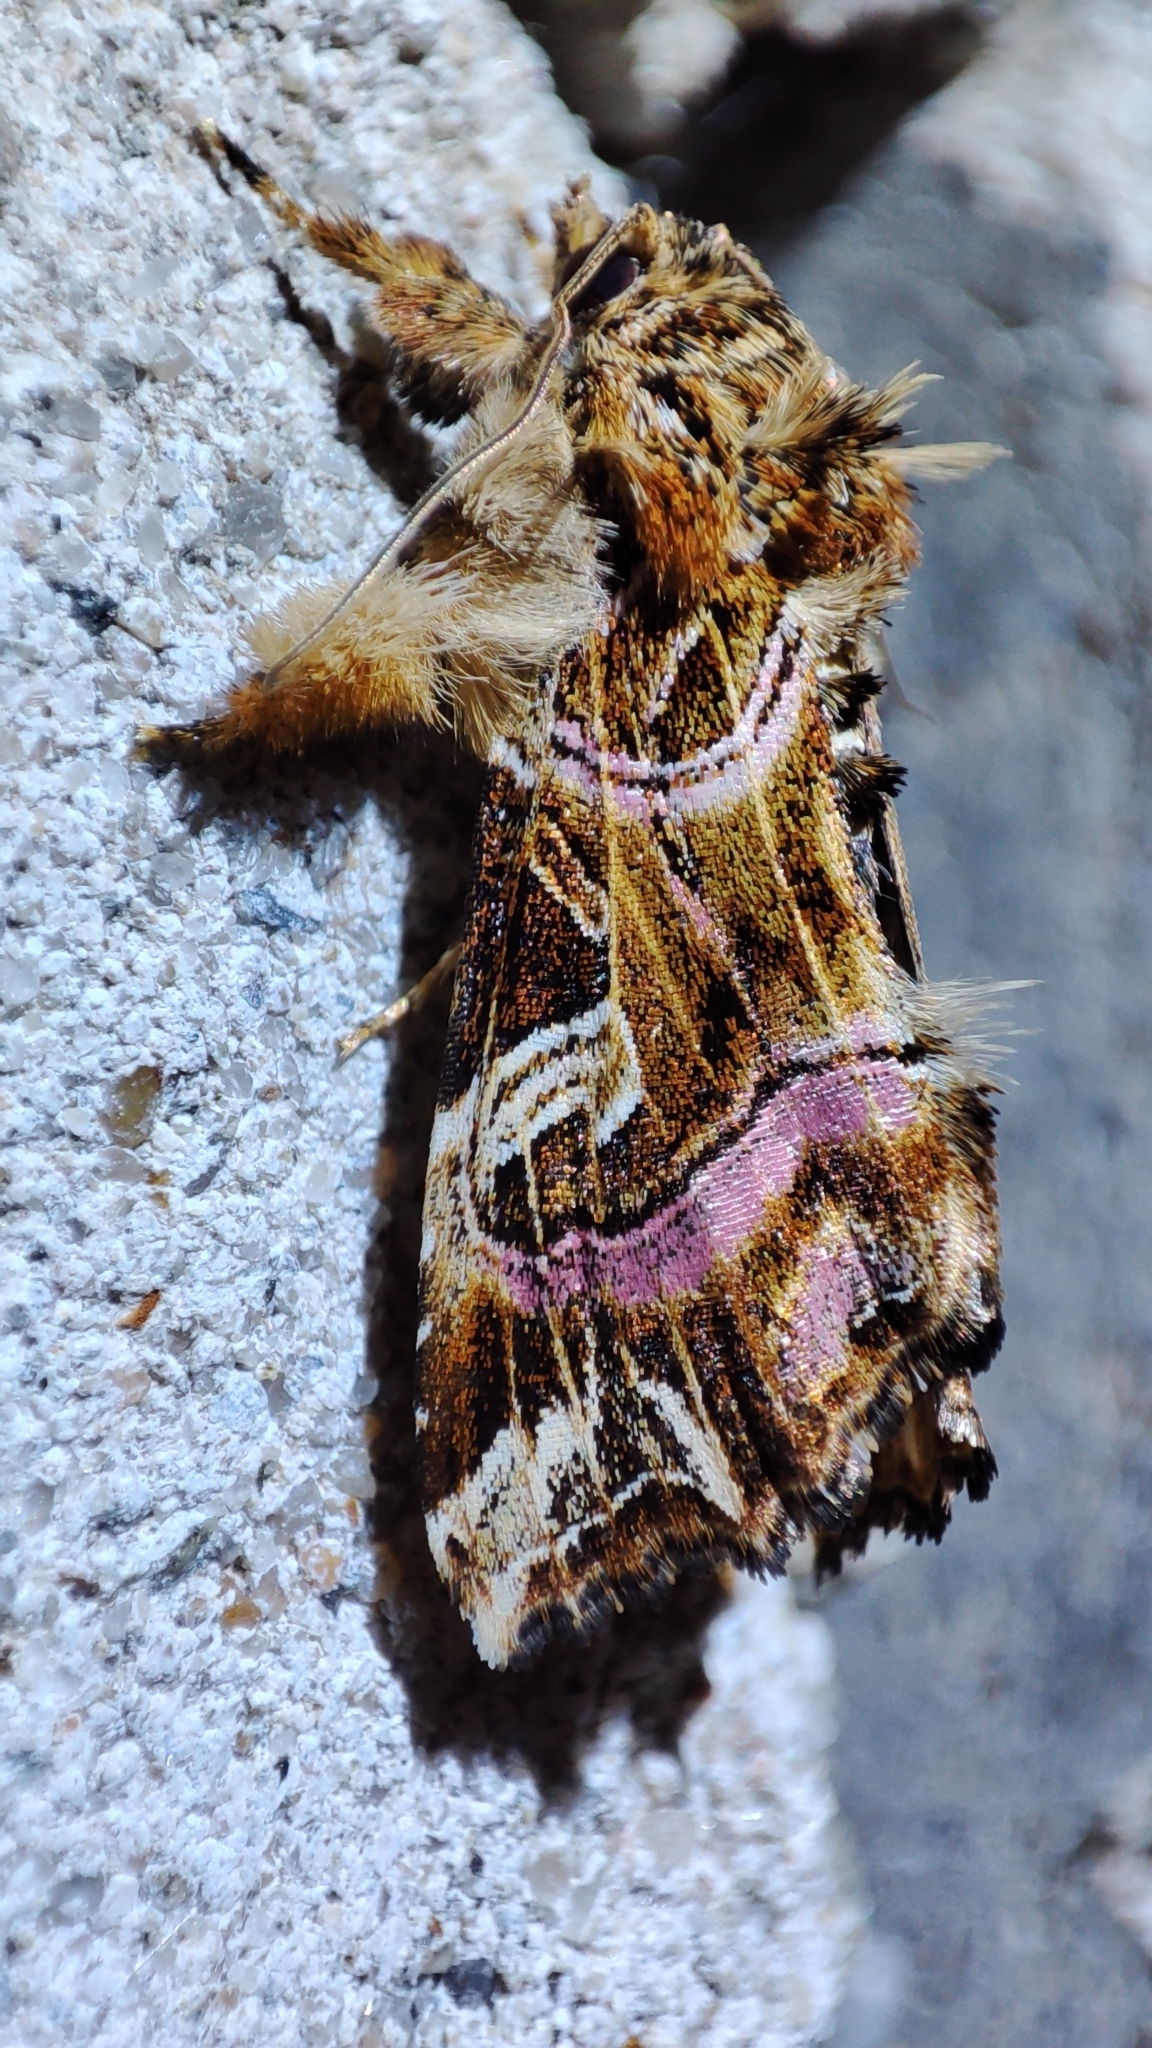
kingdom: Animalia
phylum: Arthropoda
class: Insecta
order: Lepidoptera
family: Noctuidae
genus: Callopistria
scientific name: Callopistria juventina
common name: Latin
